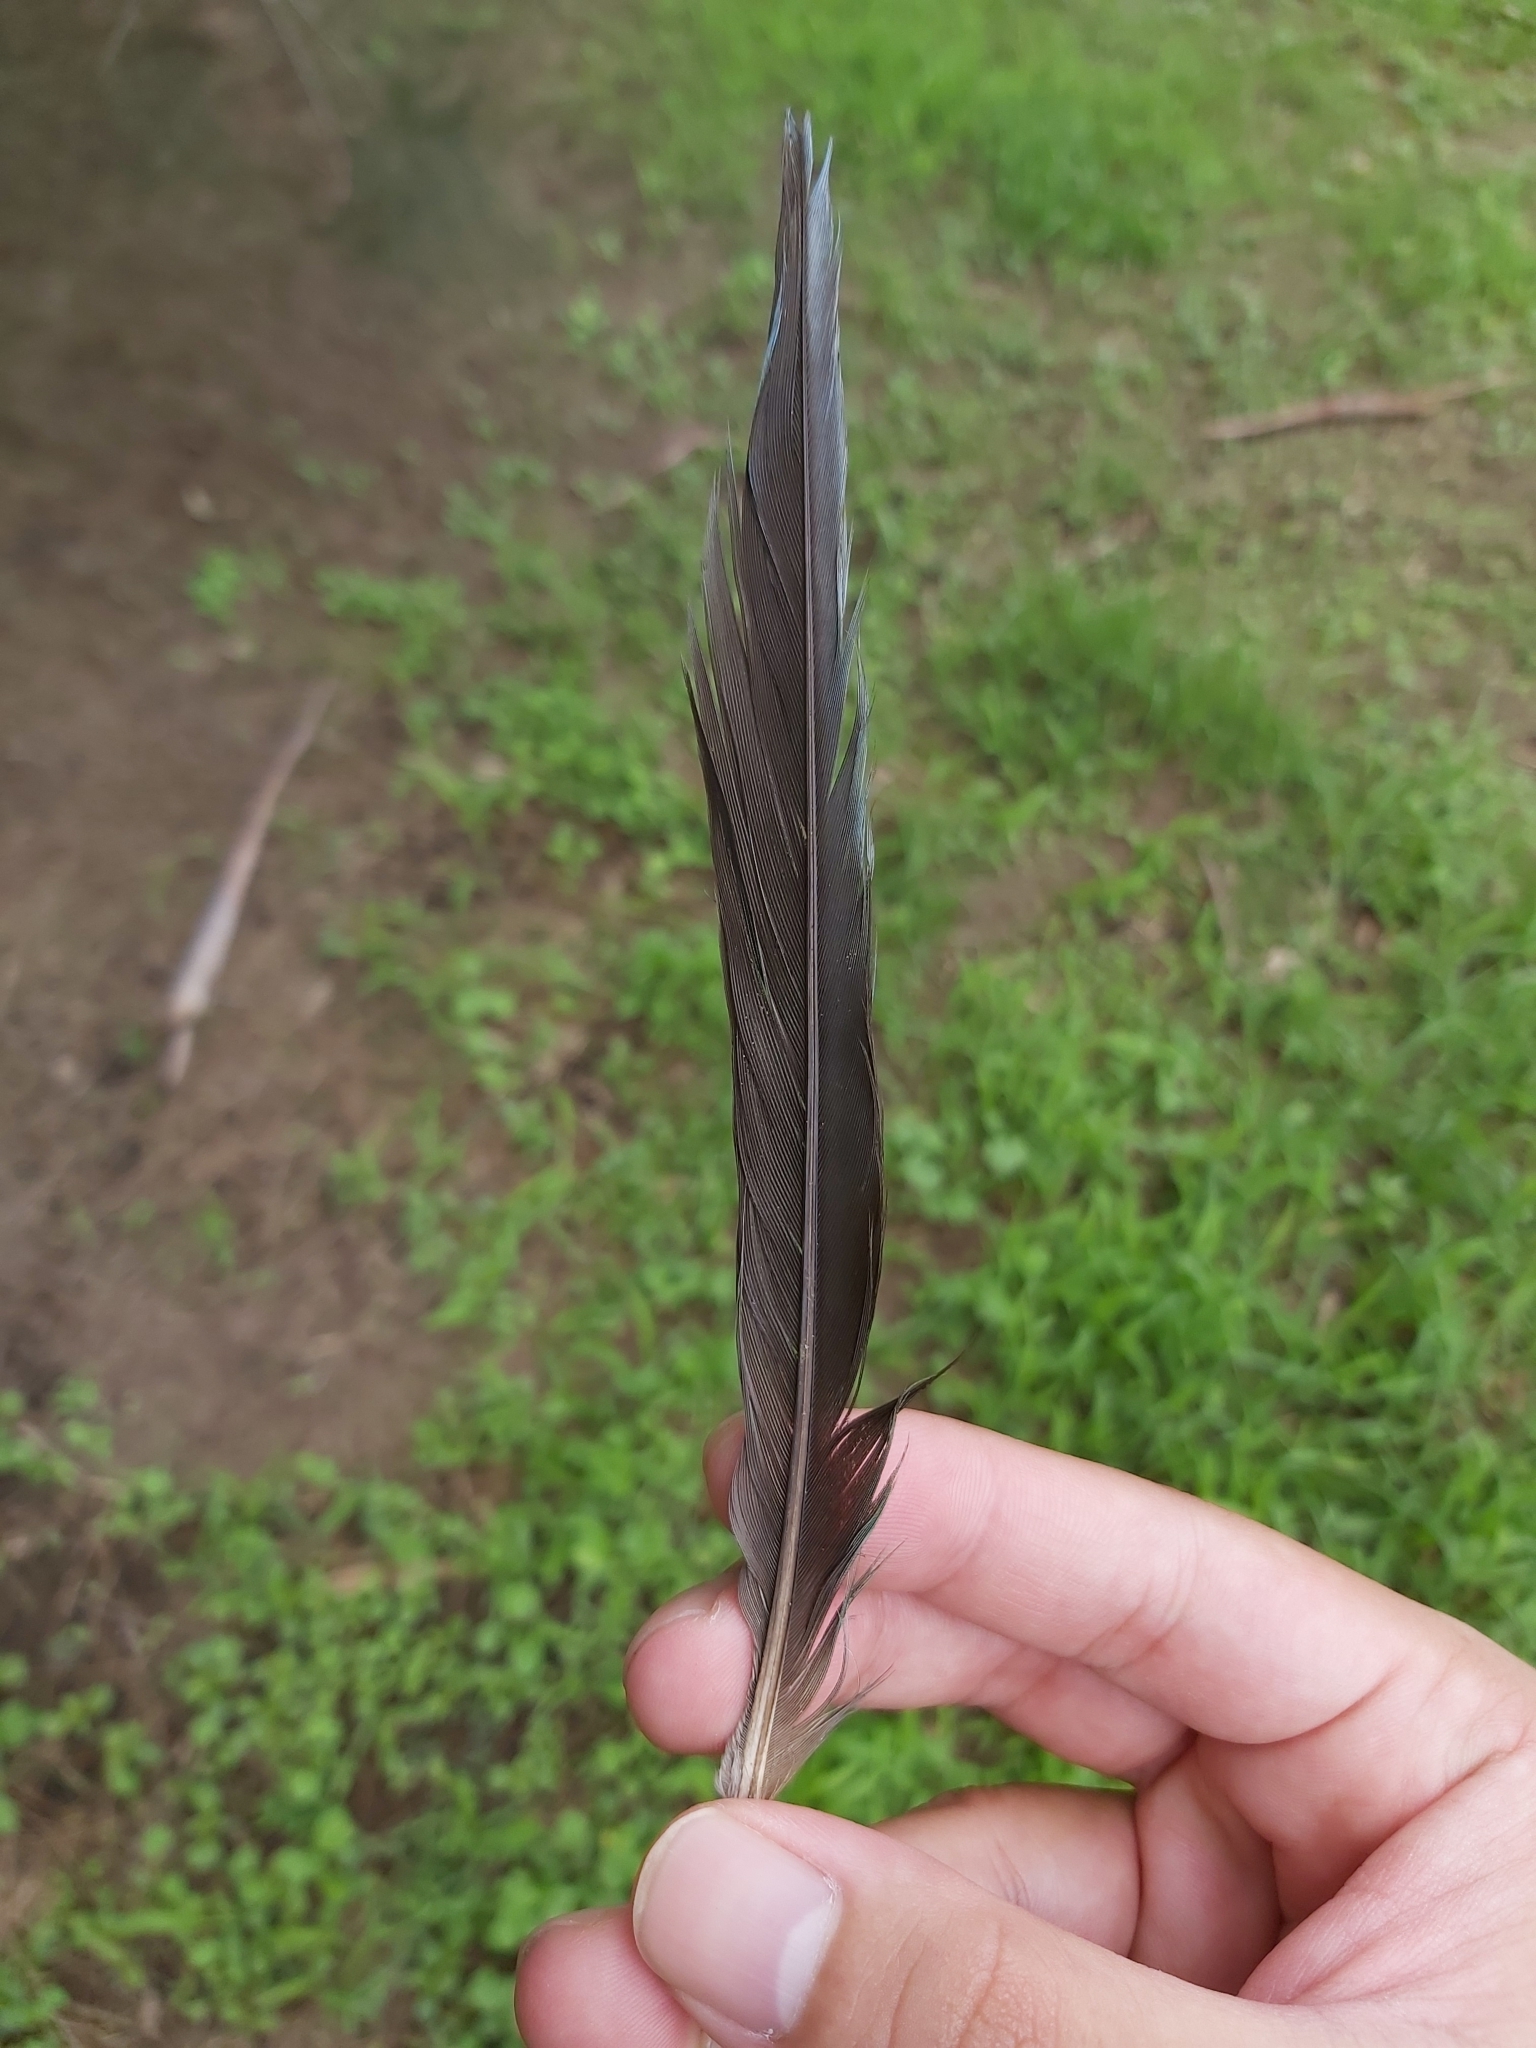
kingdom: Animalia
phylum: Chordata
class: Aves
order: Psittaciformes
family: Psittacidae
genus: Psephotus
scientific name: Psephotus haematonotus
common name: Red-rumped parrot
